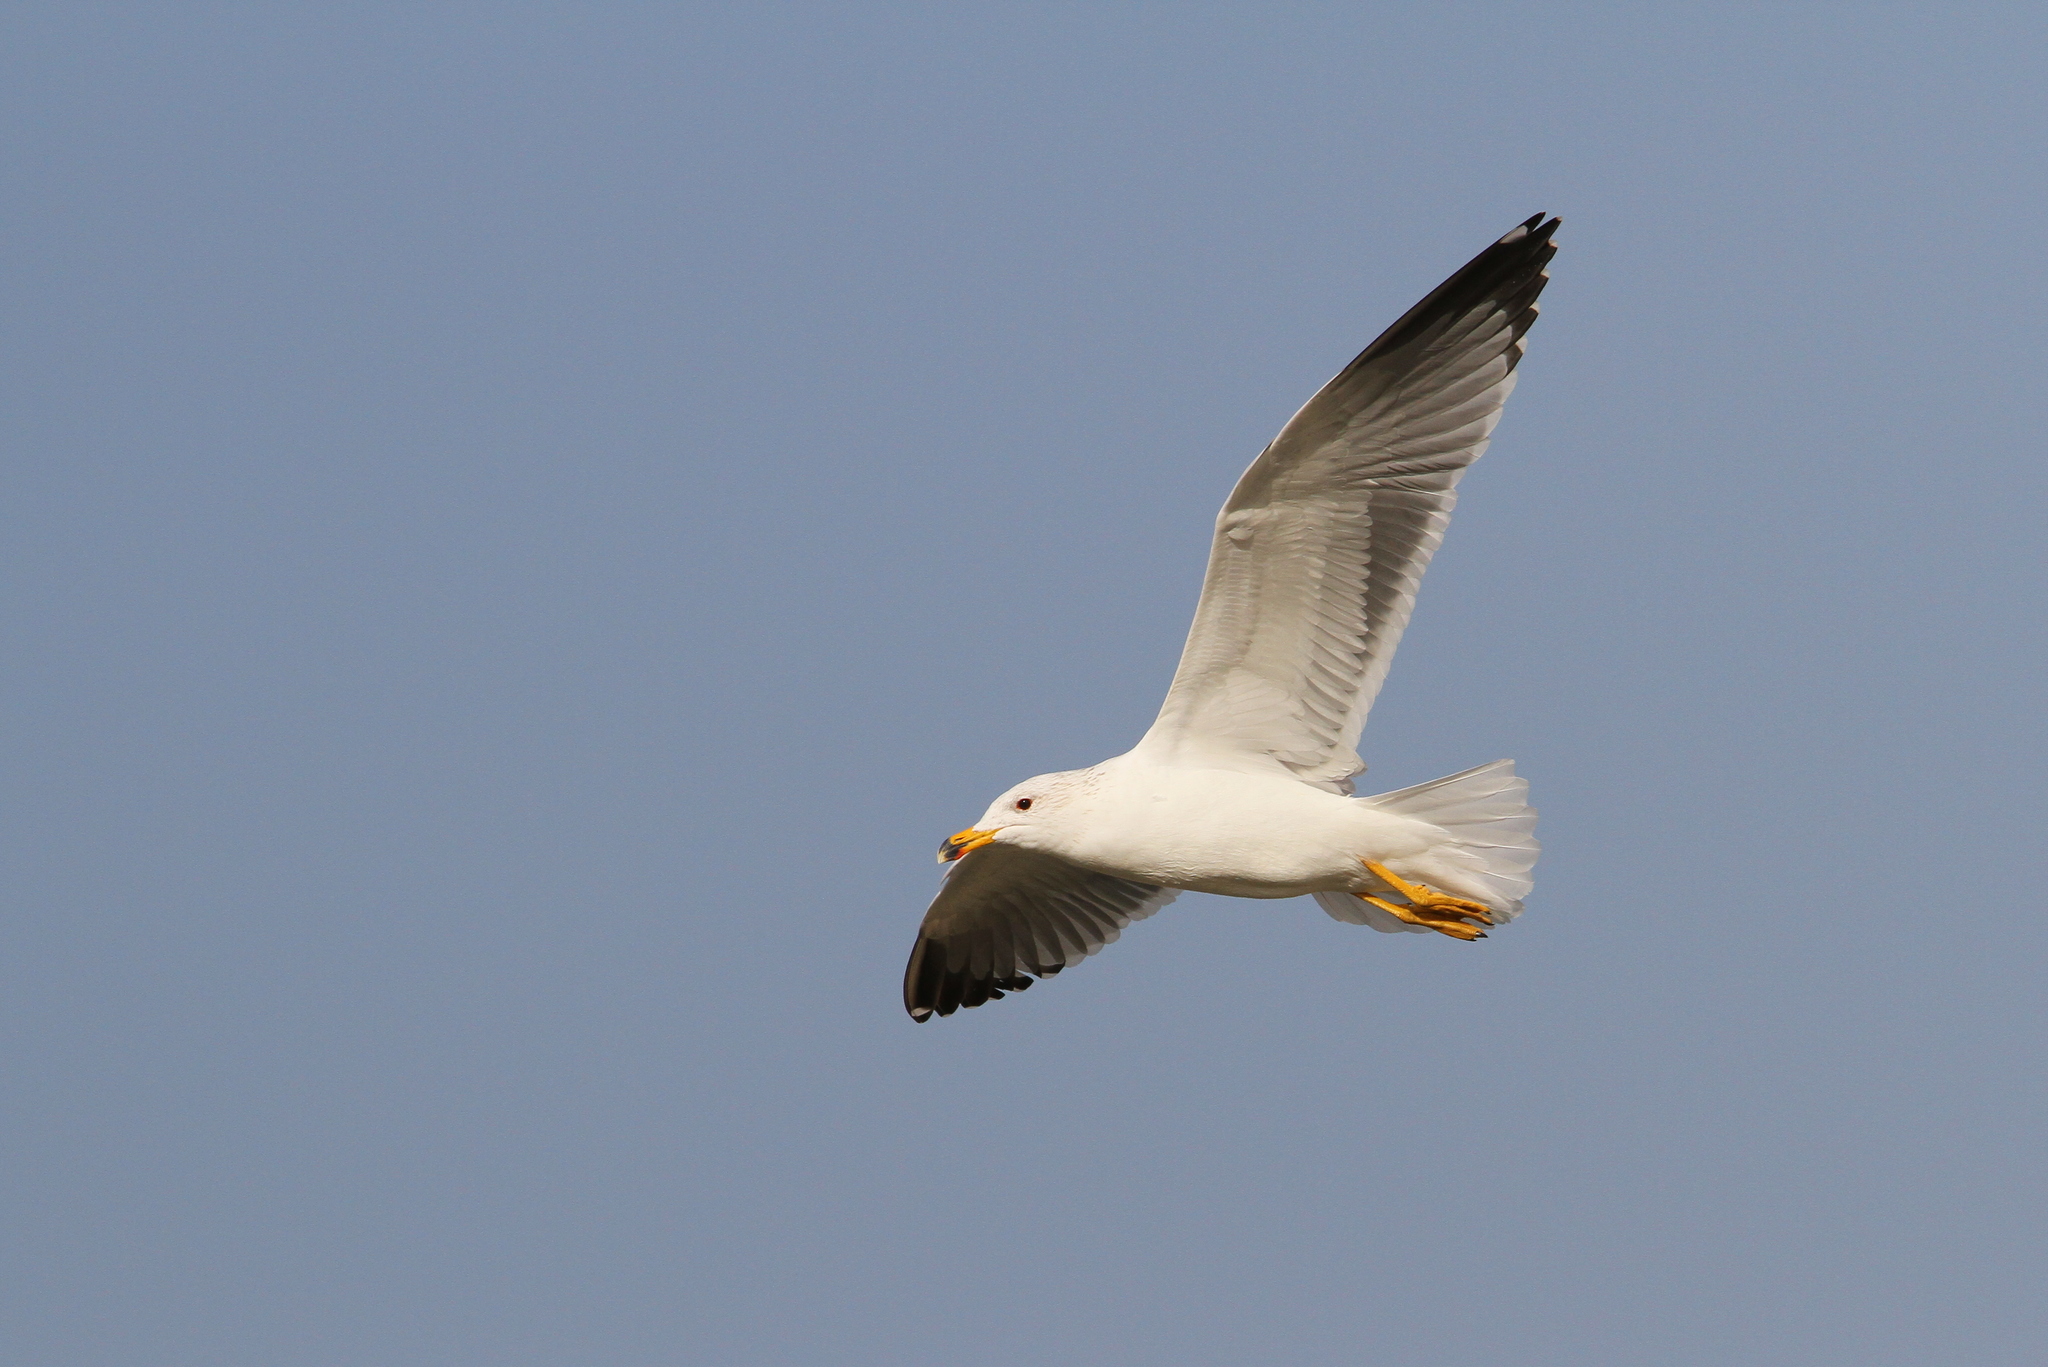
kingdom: Animalia
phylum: Chordata
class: Aves
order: Charadriiformes
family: Laridae
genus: Larus
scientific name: Larus armenicus
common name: Armenian gull
